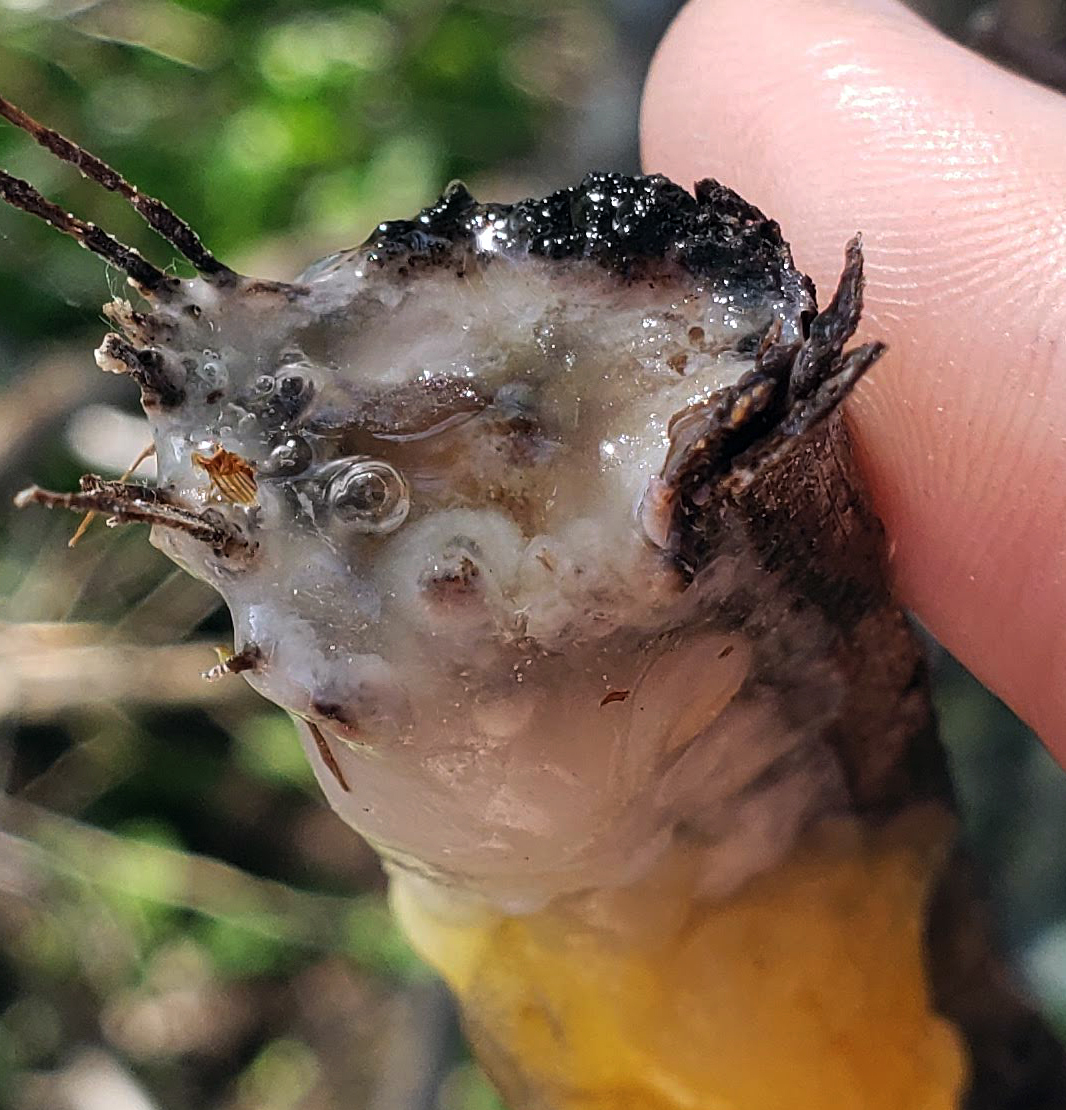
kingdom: Fungi
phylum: Ascomycota
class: Sordariomycetes
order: Hypocreales
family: Nectriaceae
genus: Fusicolla
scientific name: Fusicolla merismoides
